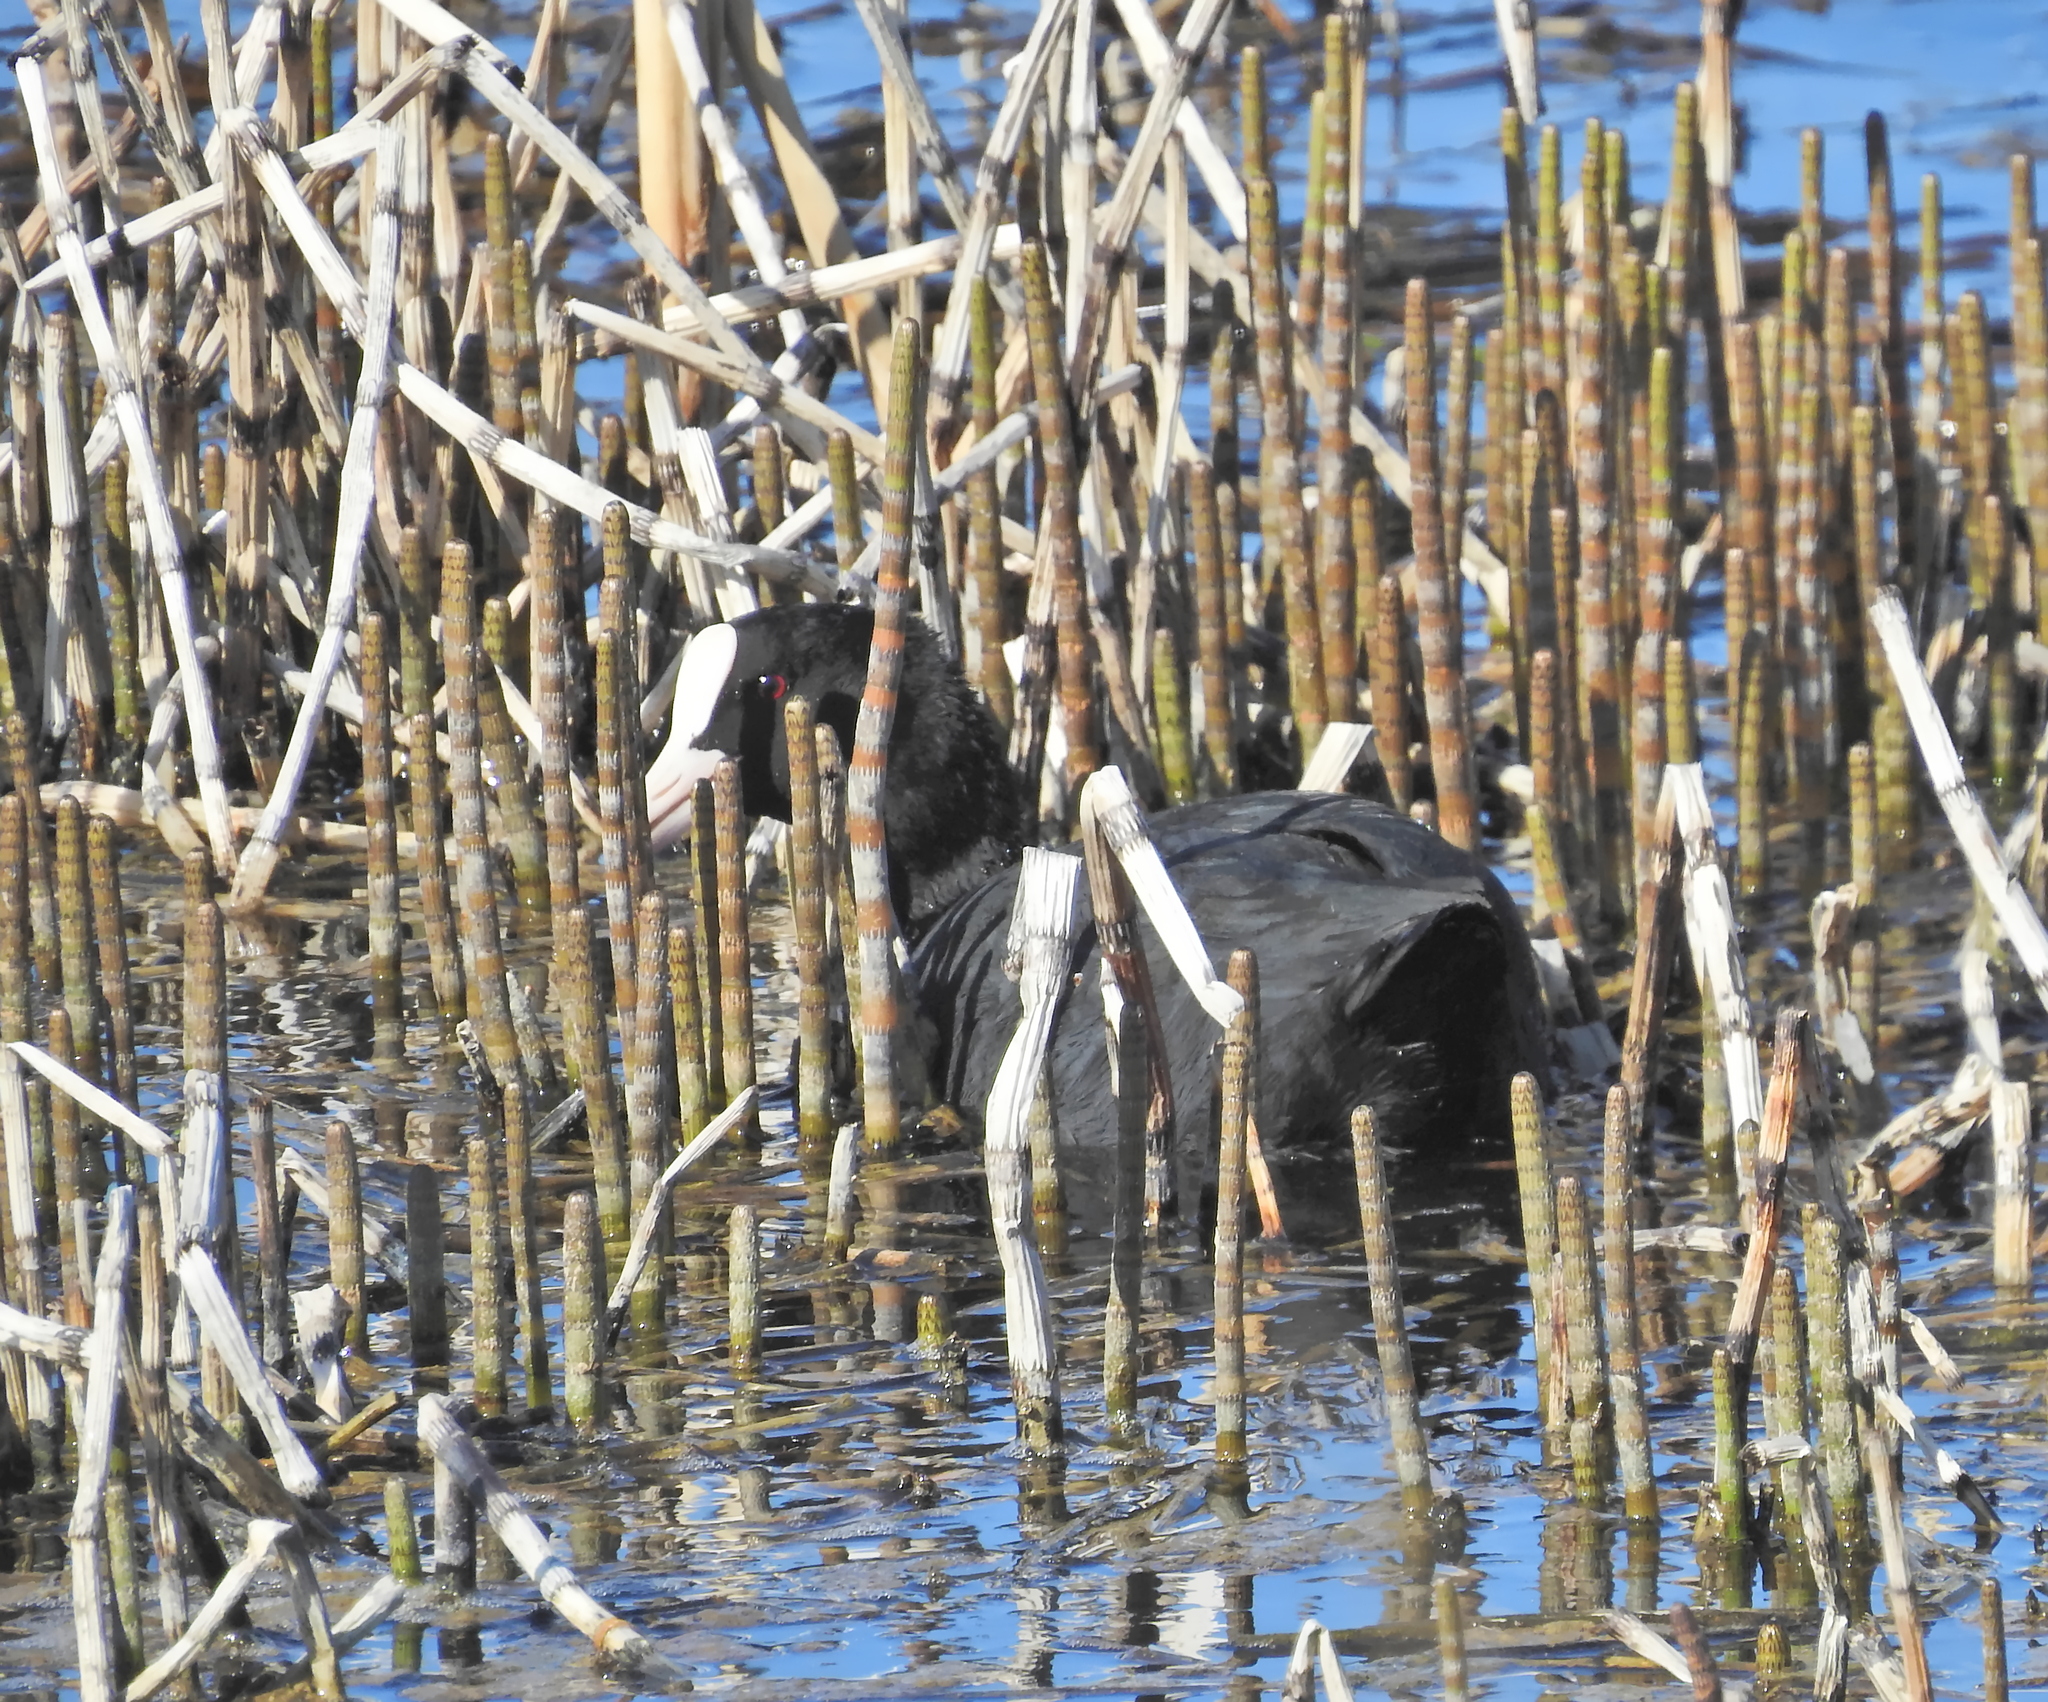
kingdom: Animalia
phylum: Chordata
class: Aves
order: Gruiformes
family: Rallidae
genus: Fulica
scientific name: Fulica atra
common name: Eurasian coot
